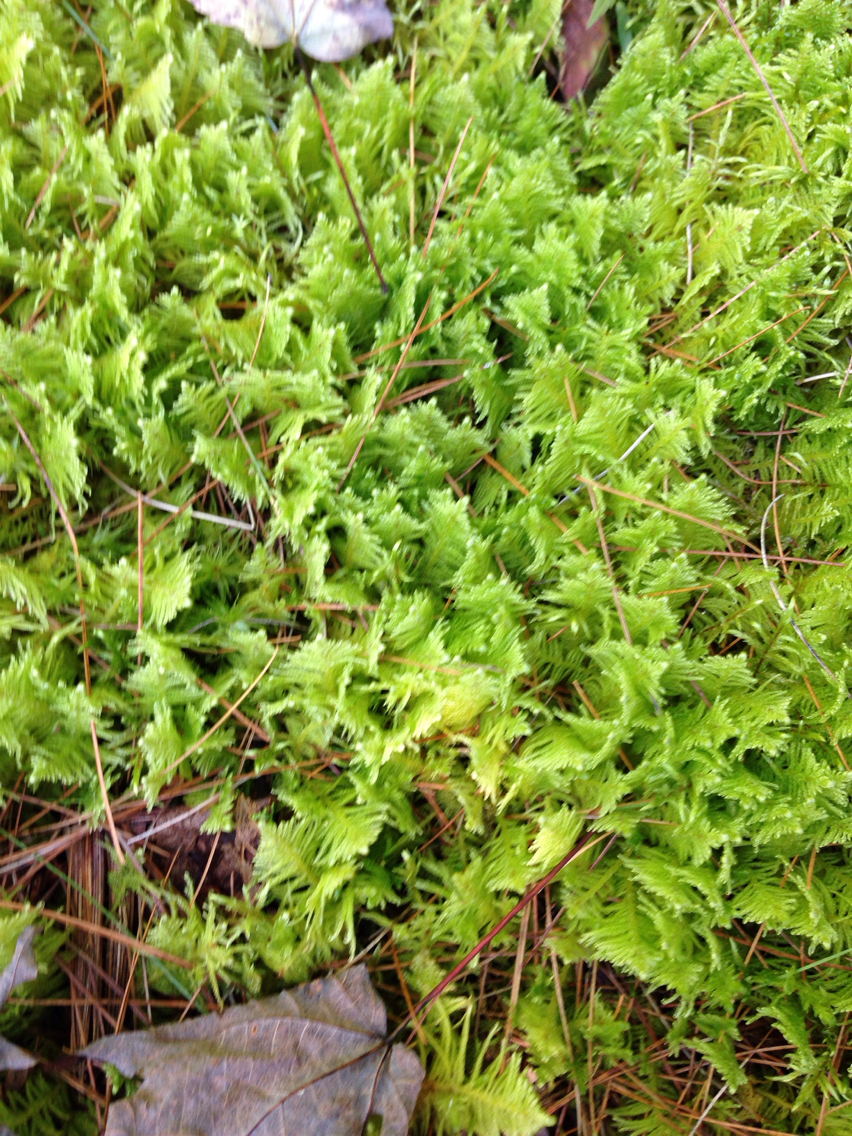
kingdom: Plantae
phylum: Bryophyta
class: Bryopsida
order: Hypnales
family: Pylaisiaceae
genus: Ptilium
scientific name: Ptilium crista-castrensis
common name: Knight's plume moss
